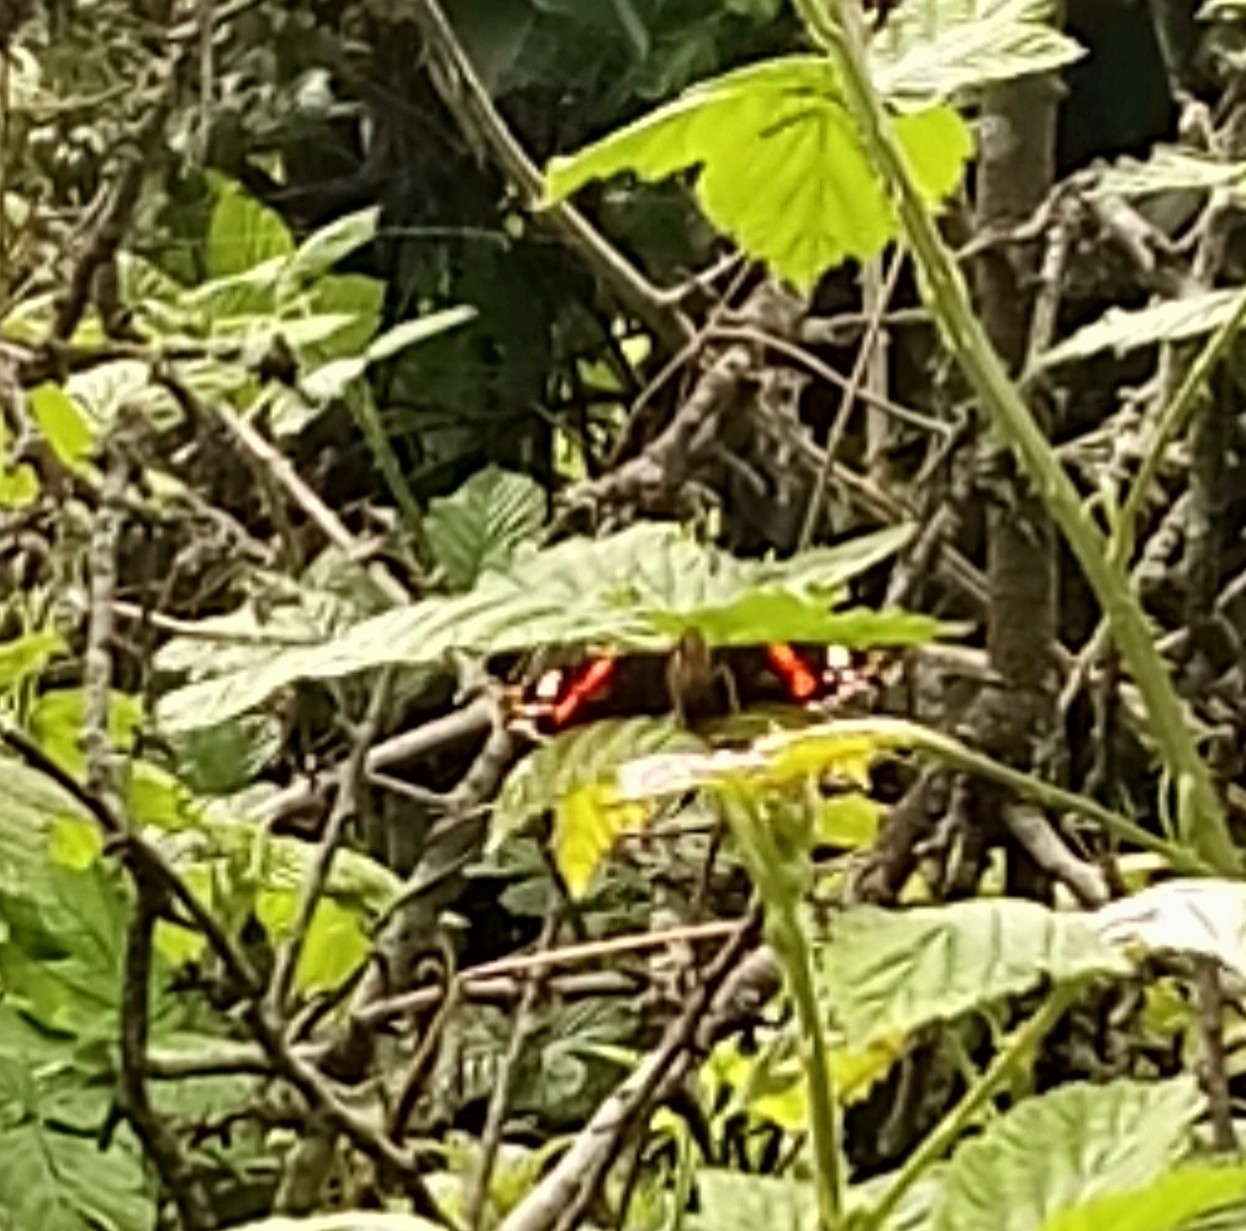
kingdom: Animalia
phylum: Arthropoda
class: Insecta
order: Lepidoptera
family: Nymphalidae
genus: Vanessa
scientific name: Vanessa atalanta
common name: Red admiral
